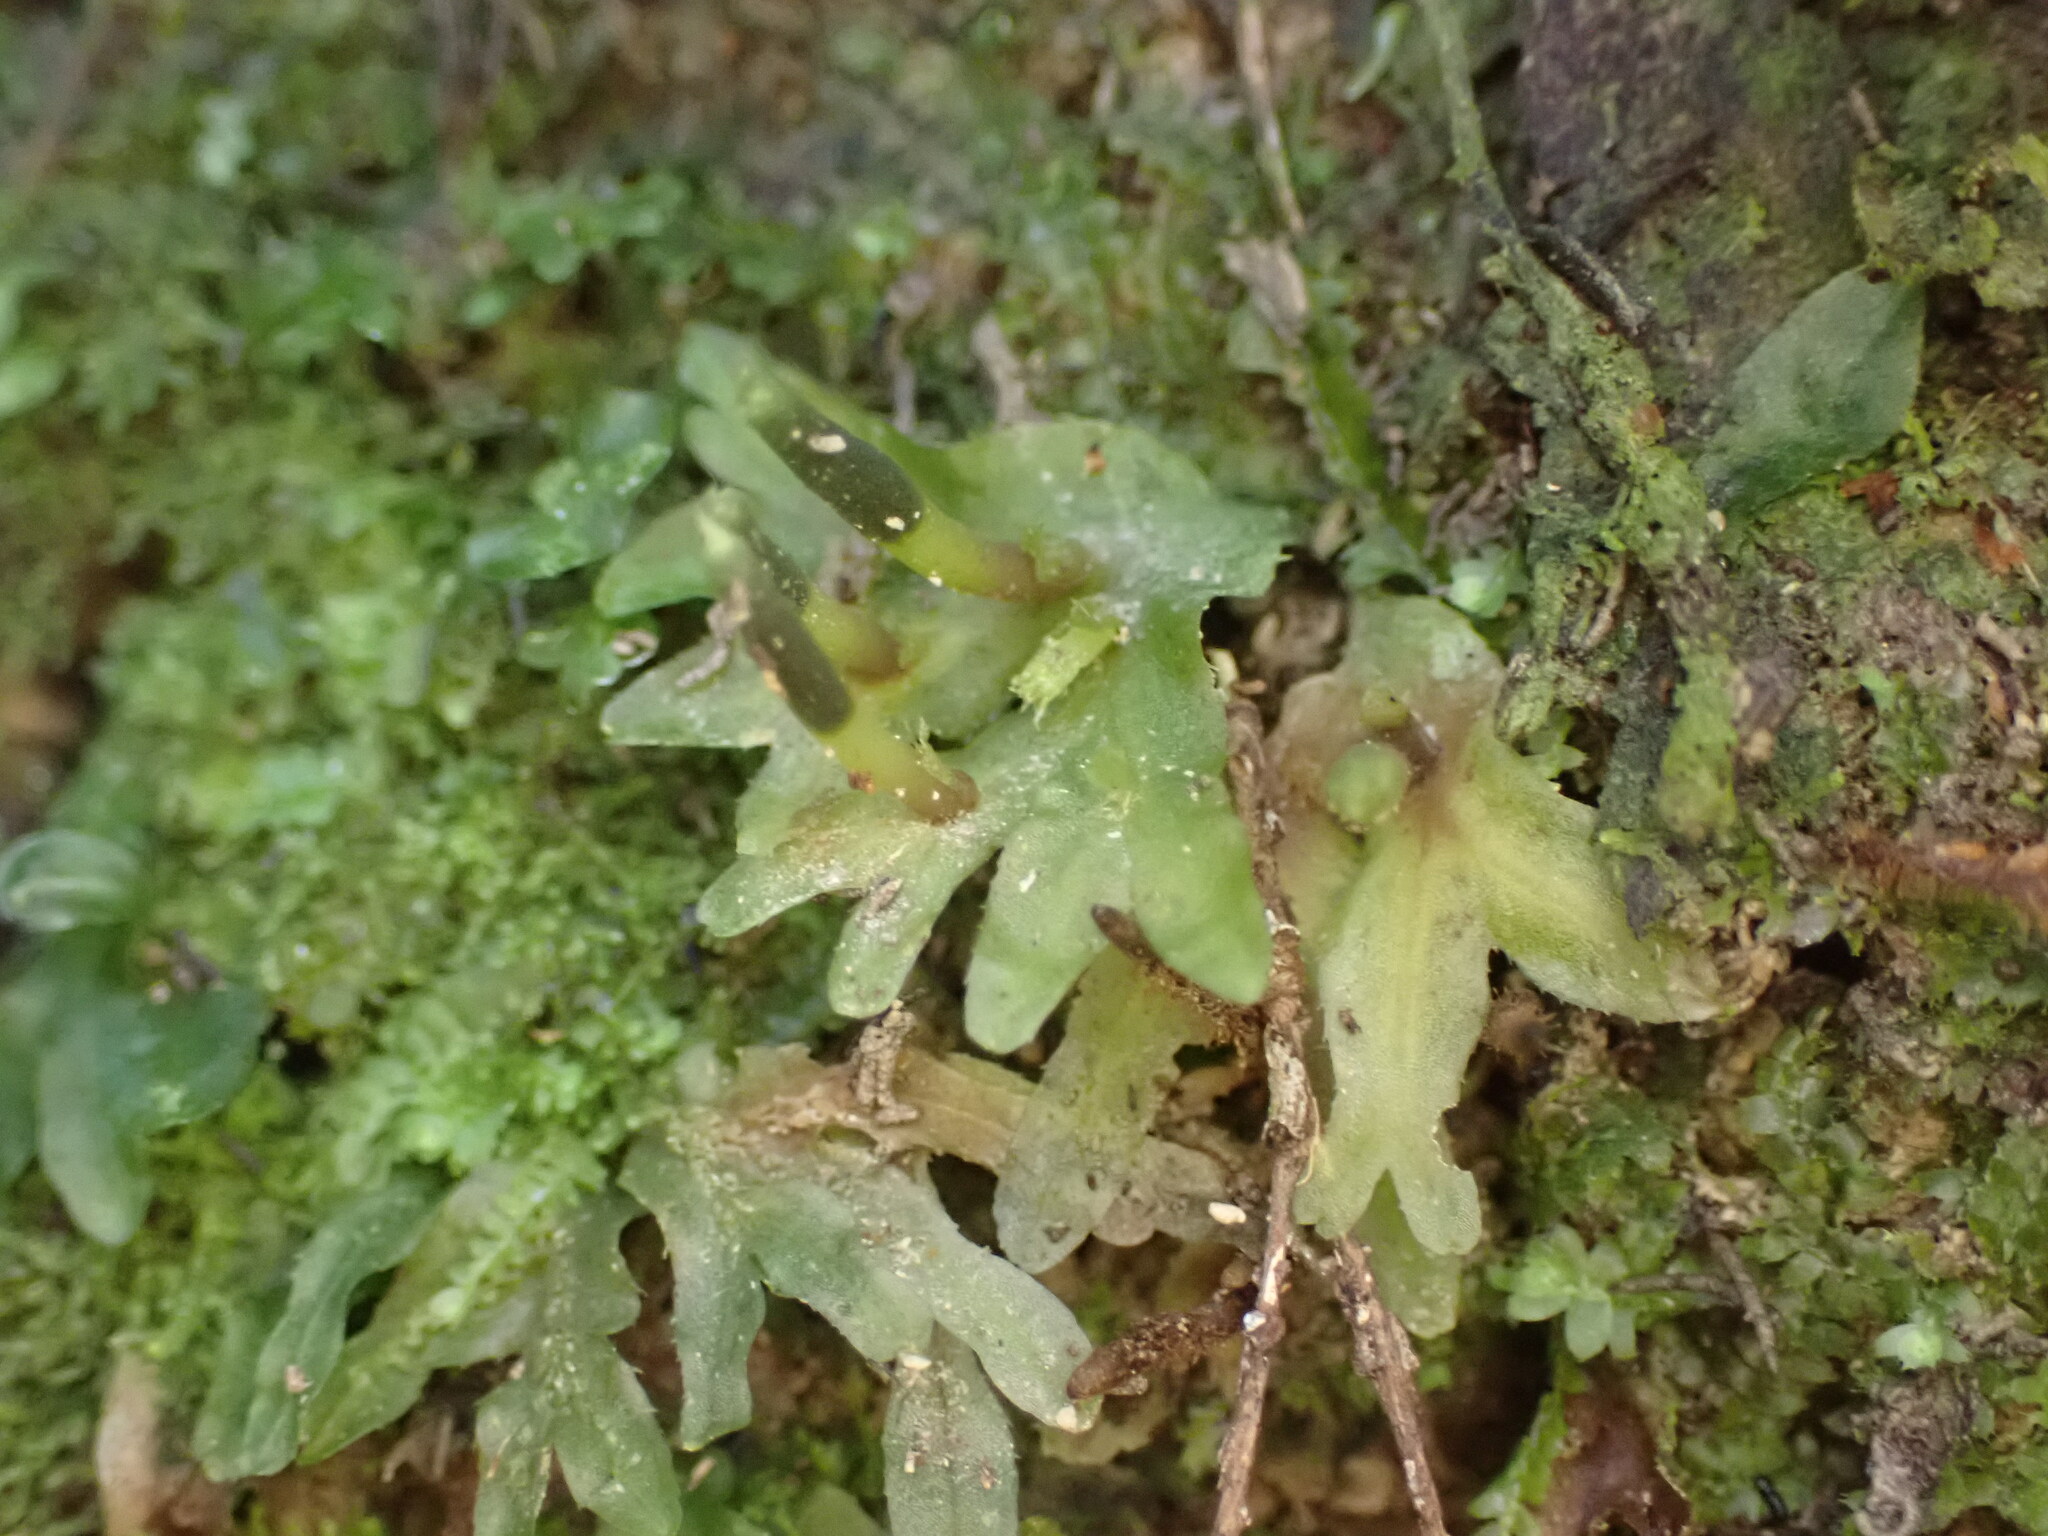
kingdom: Plantae
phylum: Marchantiophyta
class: Jungermanniopsida
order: Pallaviciniales
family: Pallaviciniaceae
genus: Symphyogyna
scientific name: Symphyogyna hymenophyllum
